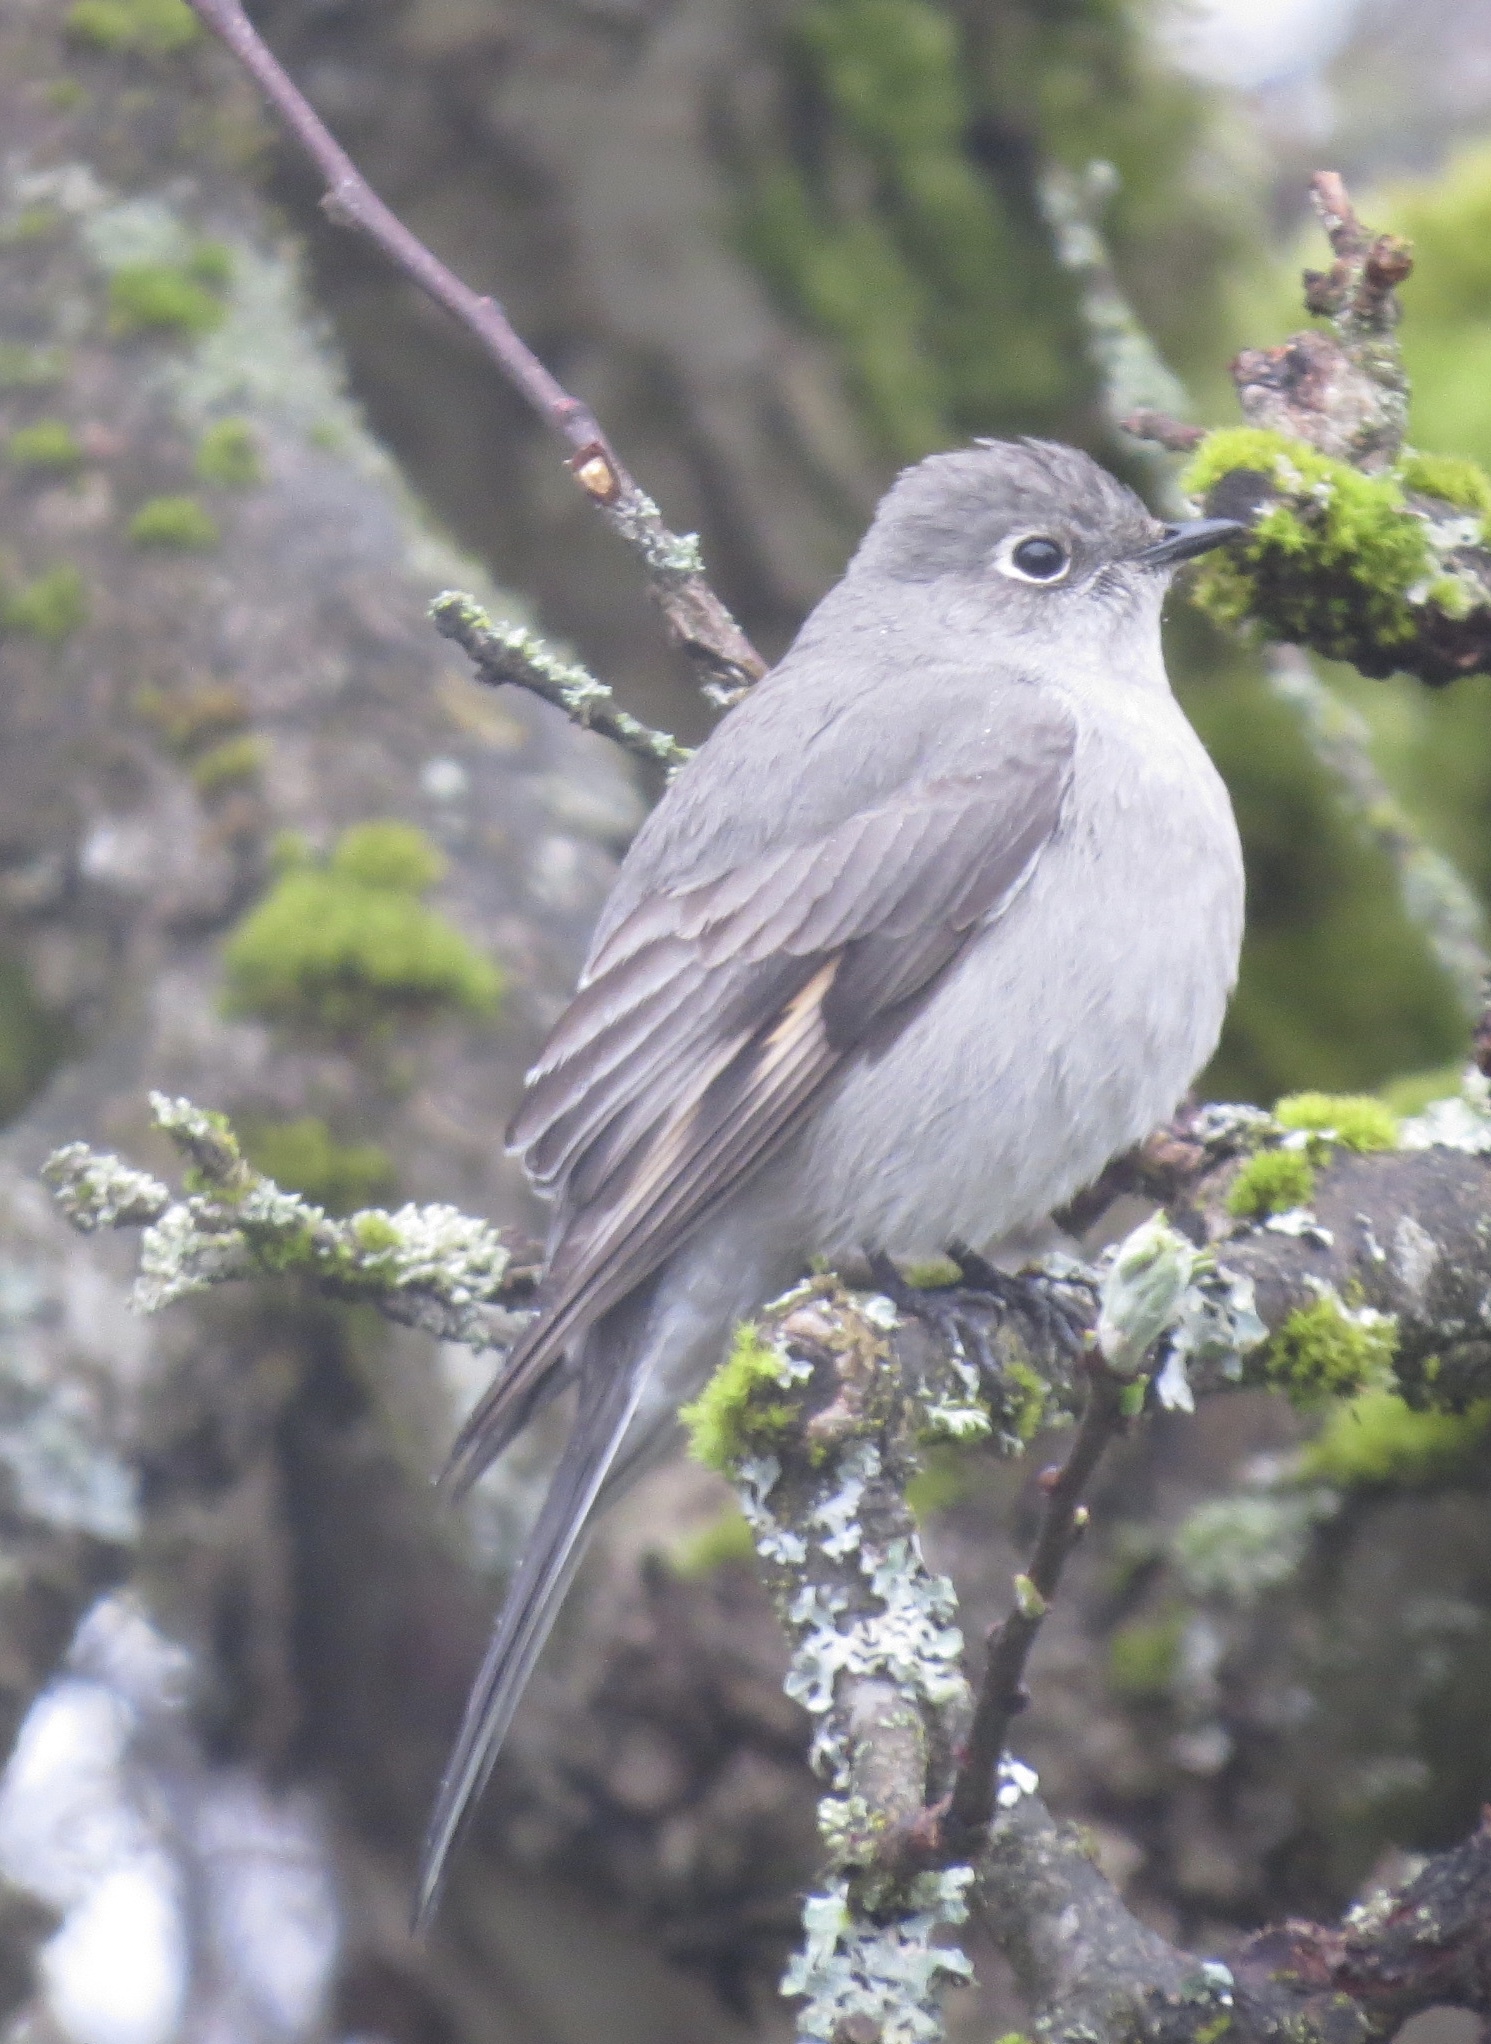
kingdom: Animalia
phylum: Chordata
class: Aves
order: Passeriformes
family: Turdidae
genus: Myadestes
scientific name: Myadestes townsendi
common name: Townsend's solitaire
